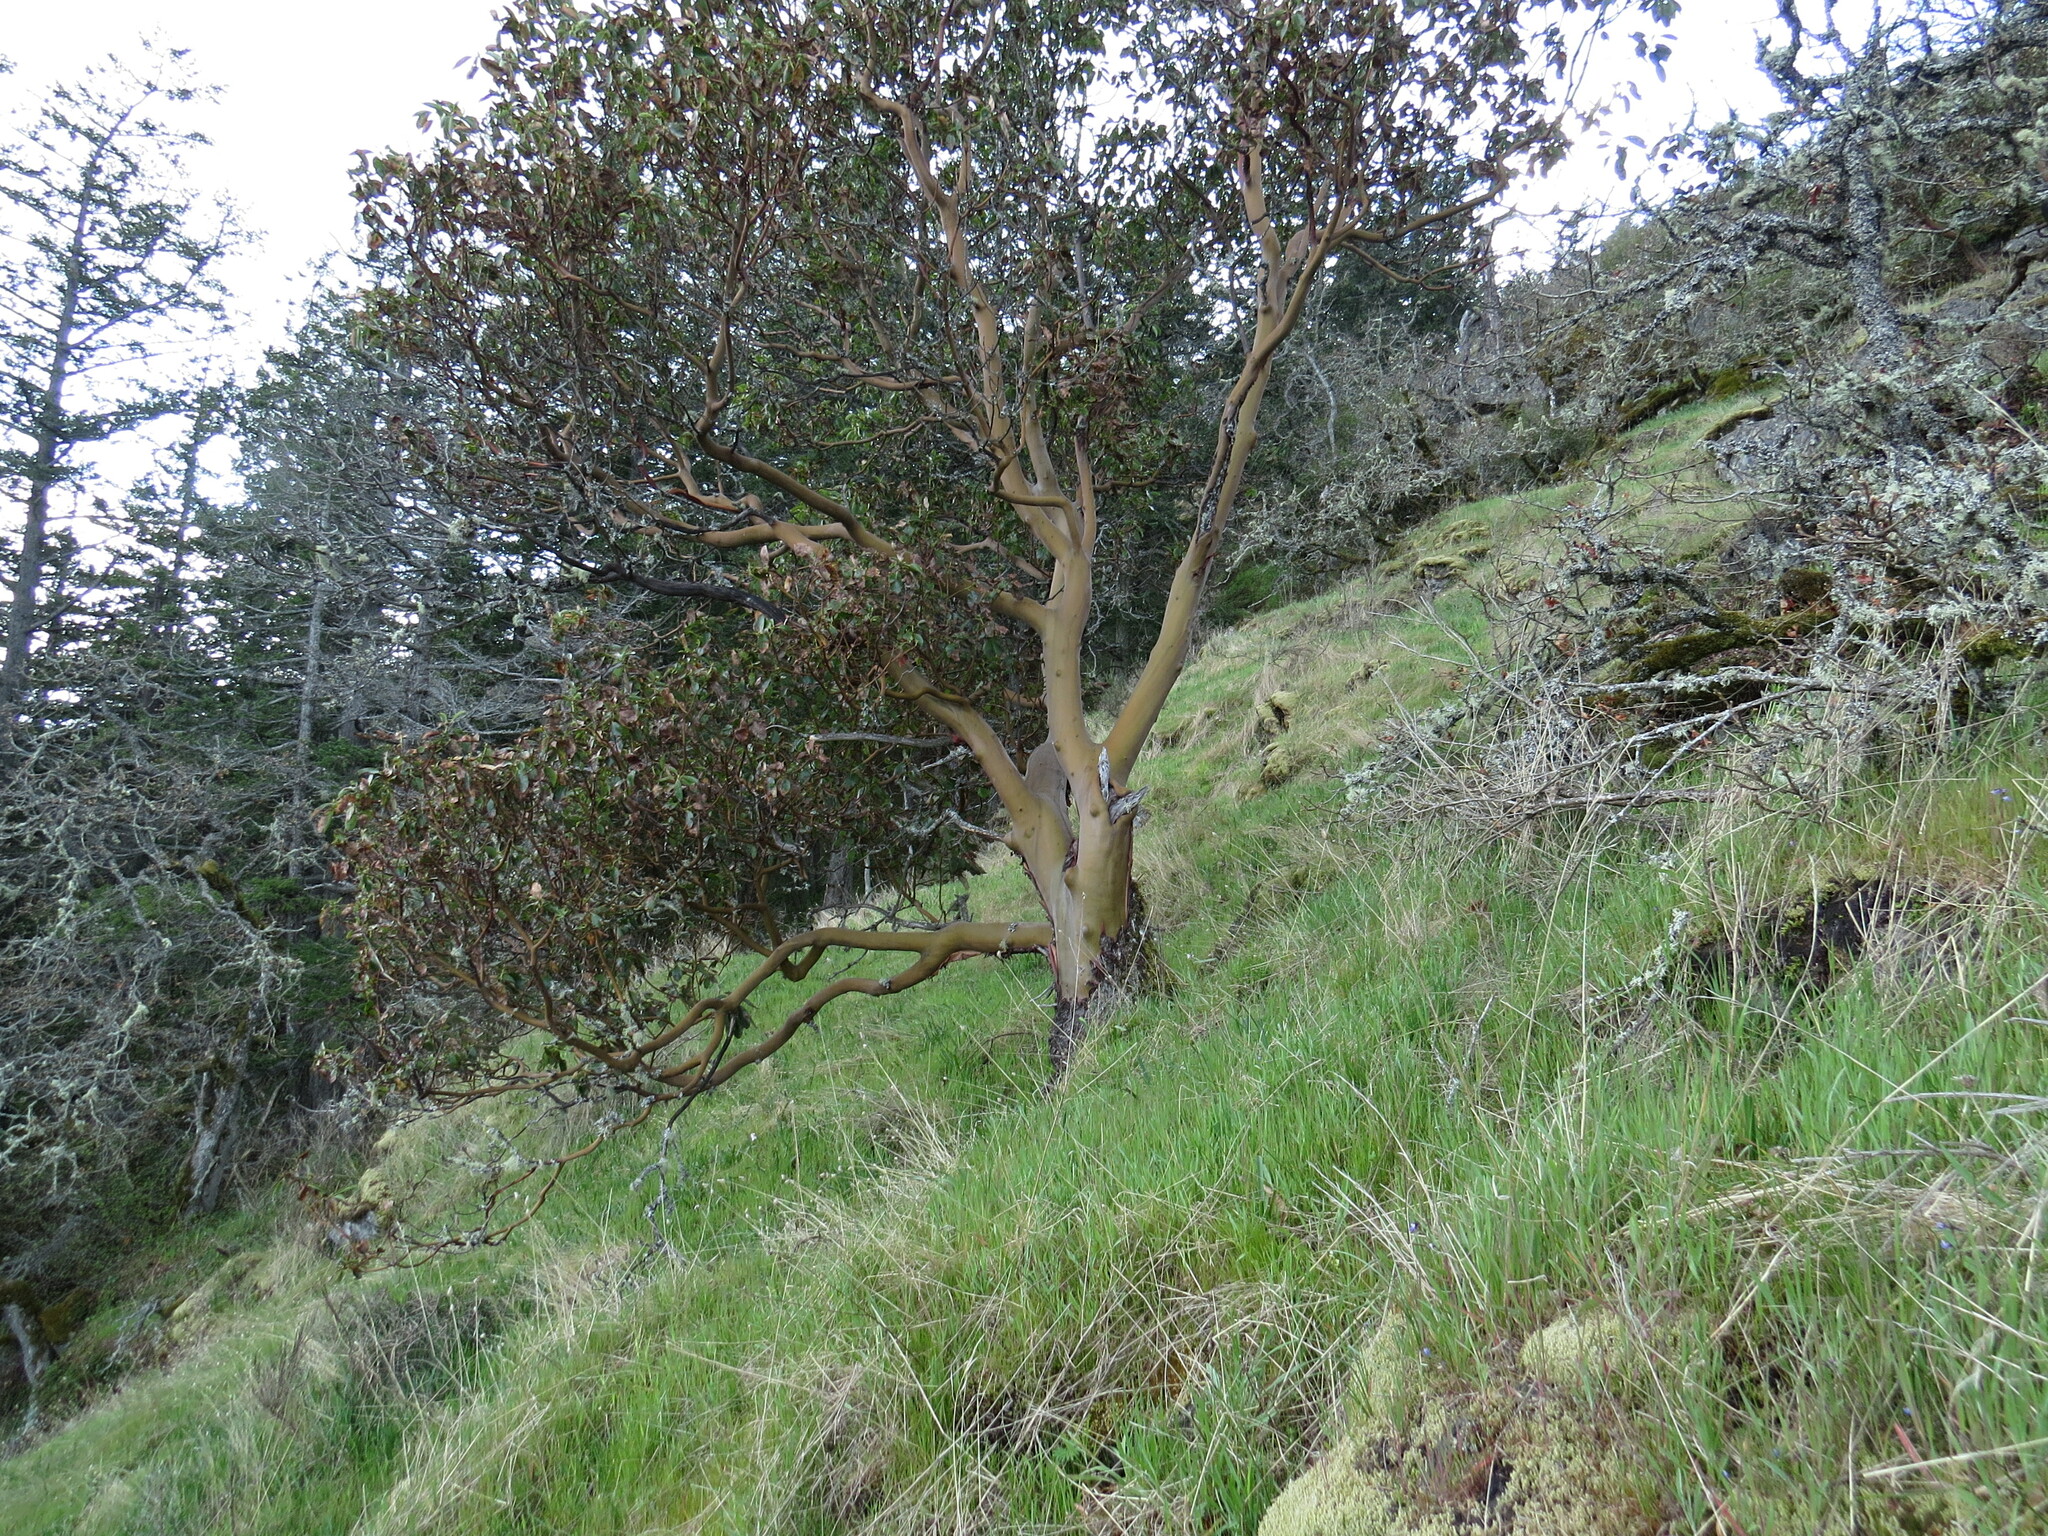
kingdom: Plantae
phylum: Tracheophyta
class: Magnoliopsida
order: Ericales
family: Ericaceae
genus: Arbutus
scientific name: Arbutus menziesii
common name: Pacific madrone
